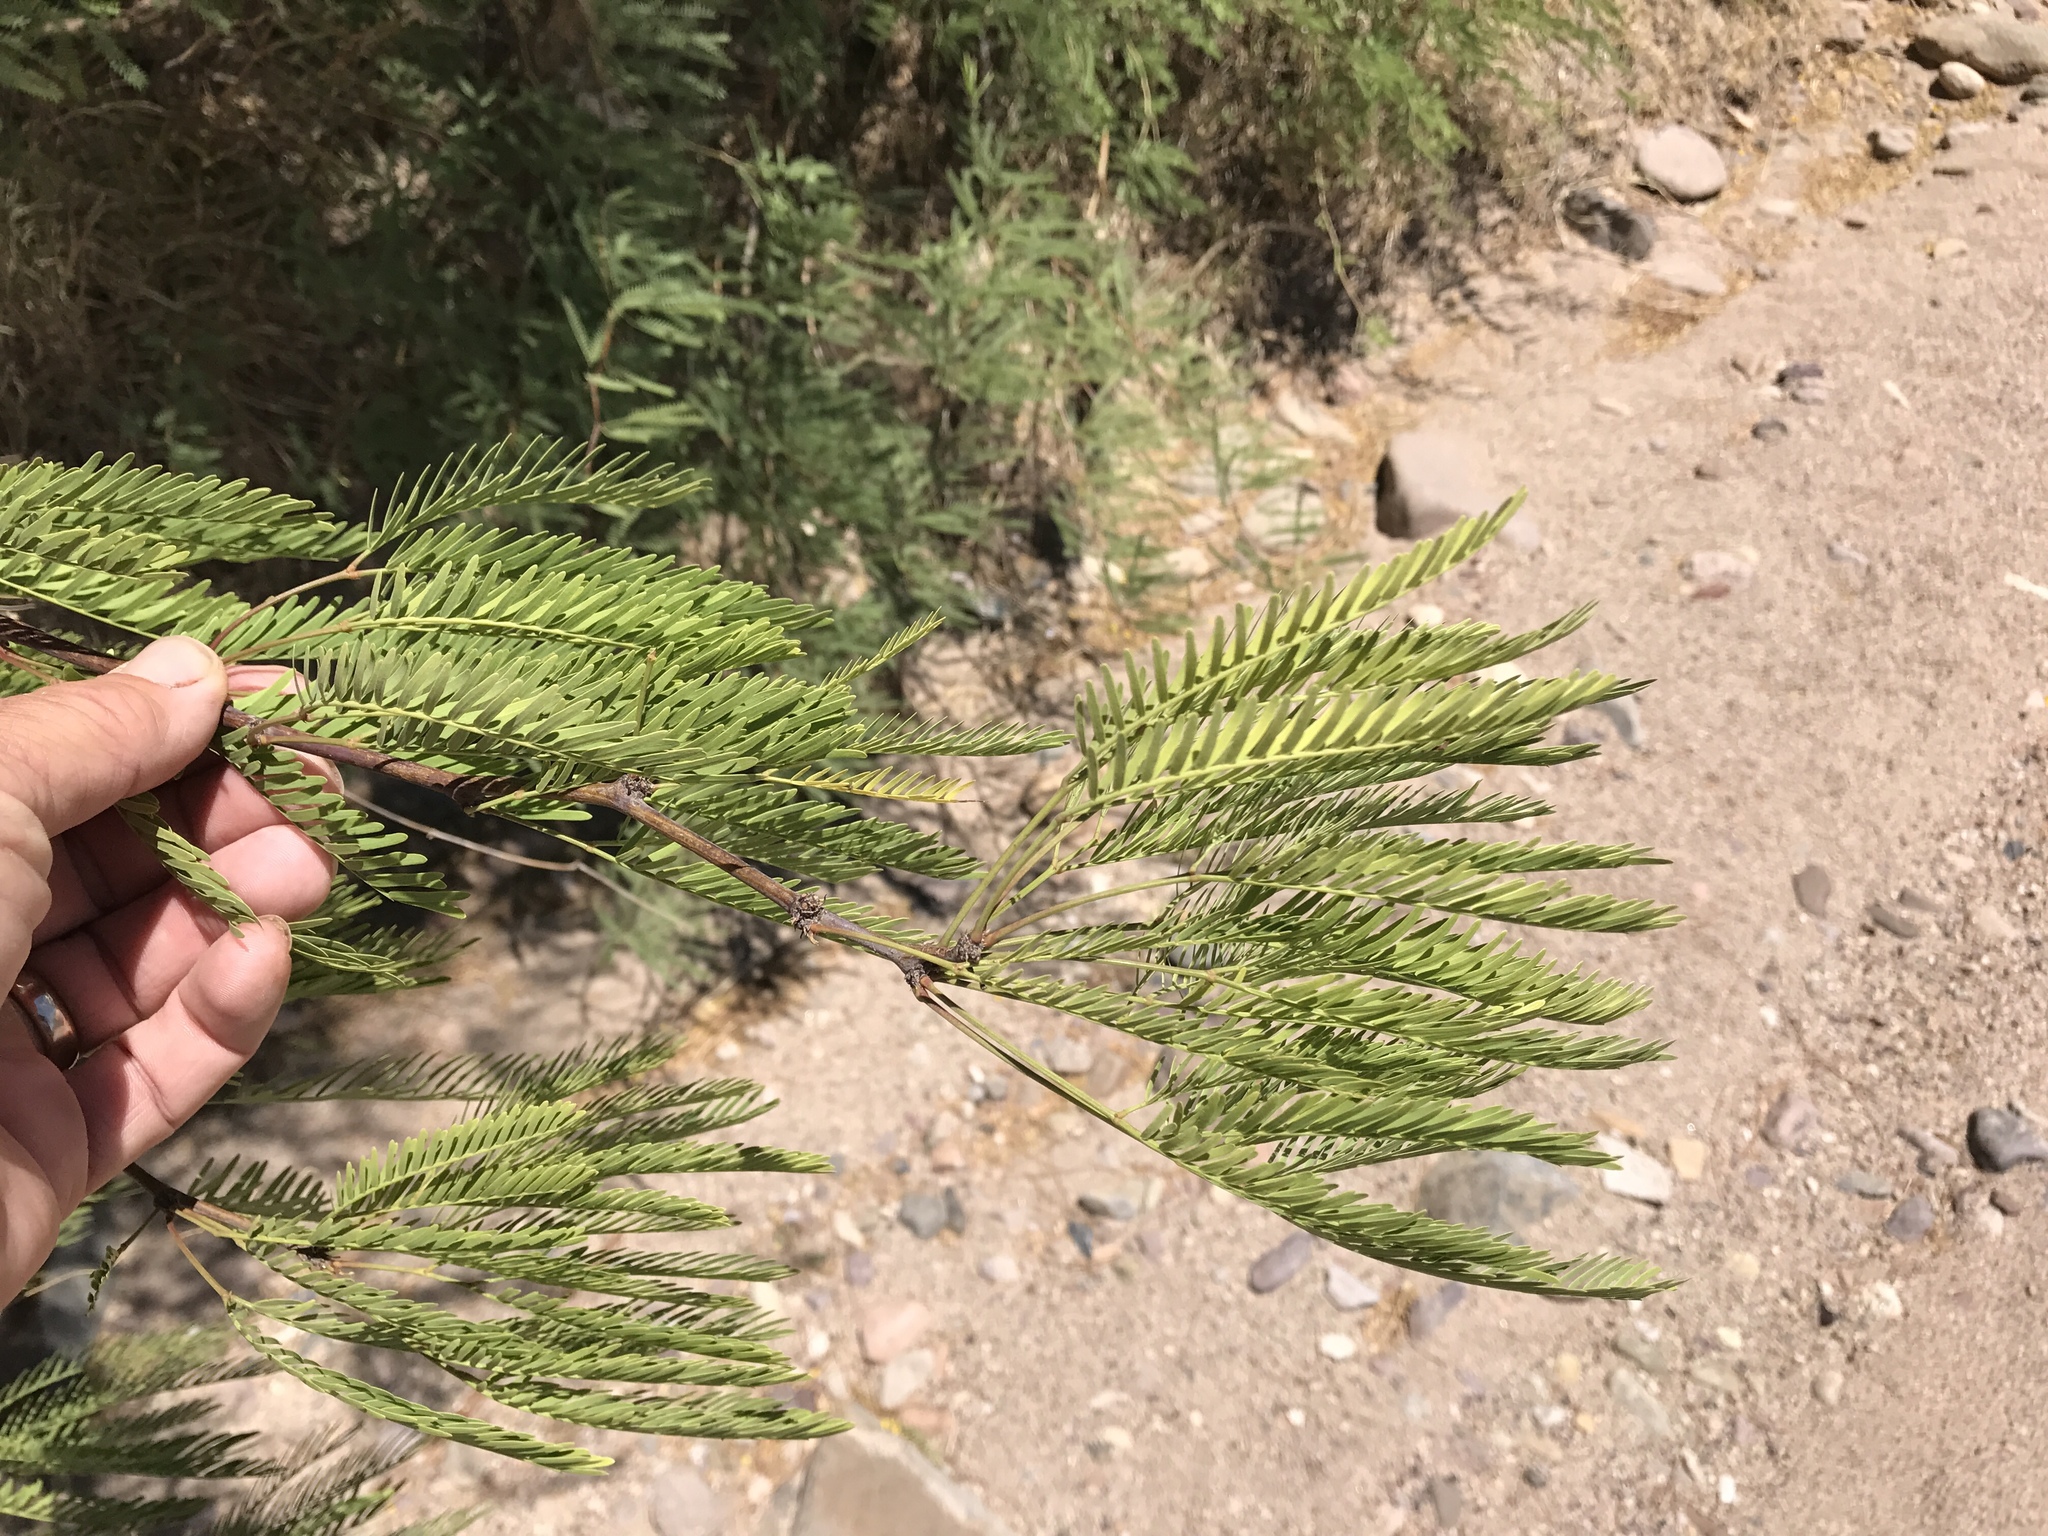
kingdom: Plantae
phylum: Tracheophyta
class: Magnoliopsida
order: Fabales
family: Fabaceae
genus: Prosopis
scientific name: Prosopis glandulosa
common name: Honey mesquite
